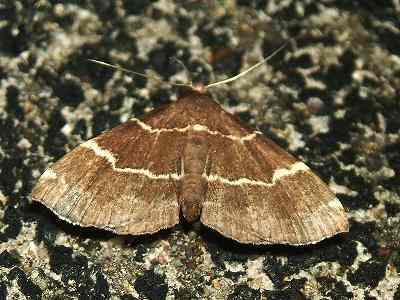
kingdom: Animalia
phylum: Arthropoda
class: Insecta
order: Lepidoptera
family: Erebidae
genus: Bertula
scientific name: Bertula
